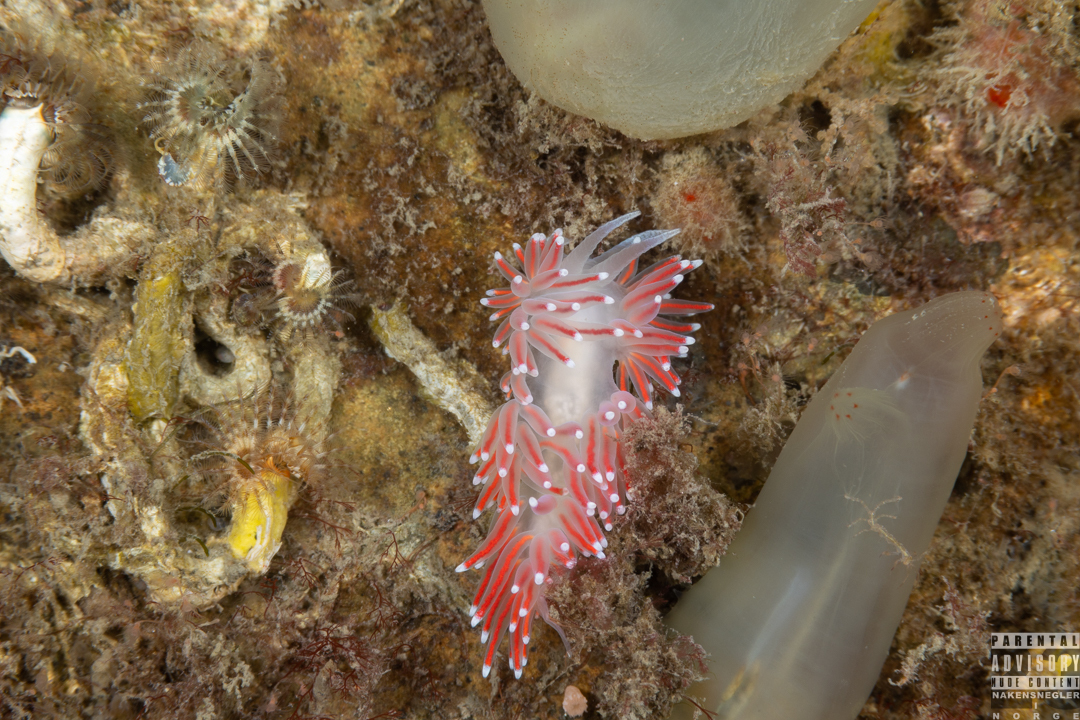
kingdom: Animalia
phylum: Mollusca
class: Gastropoda
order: Nudibranchia
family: Flabellinidae
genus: Carronella
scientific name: Carronella pellucida
